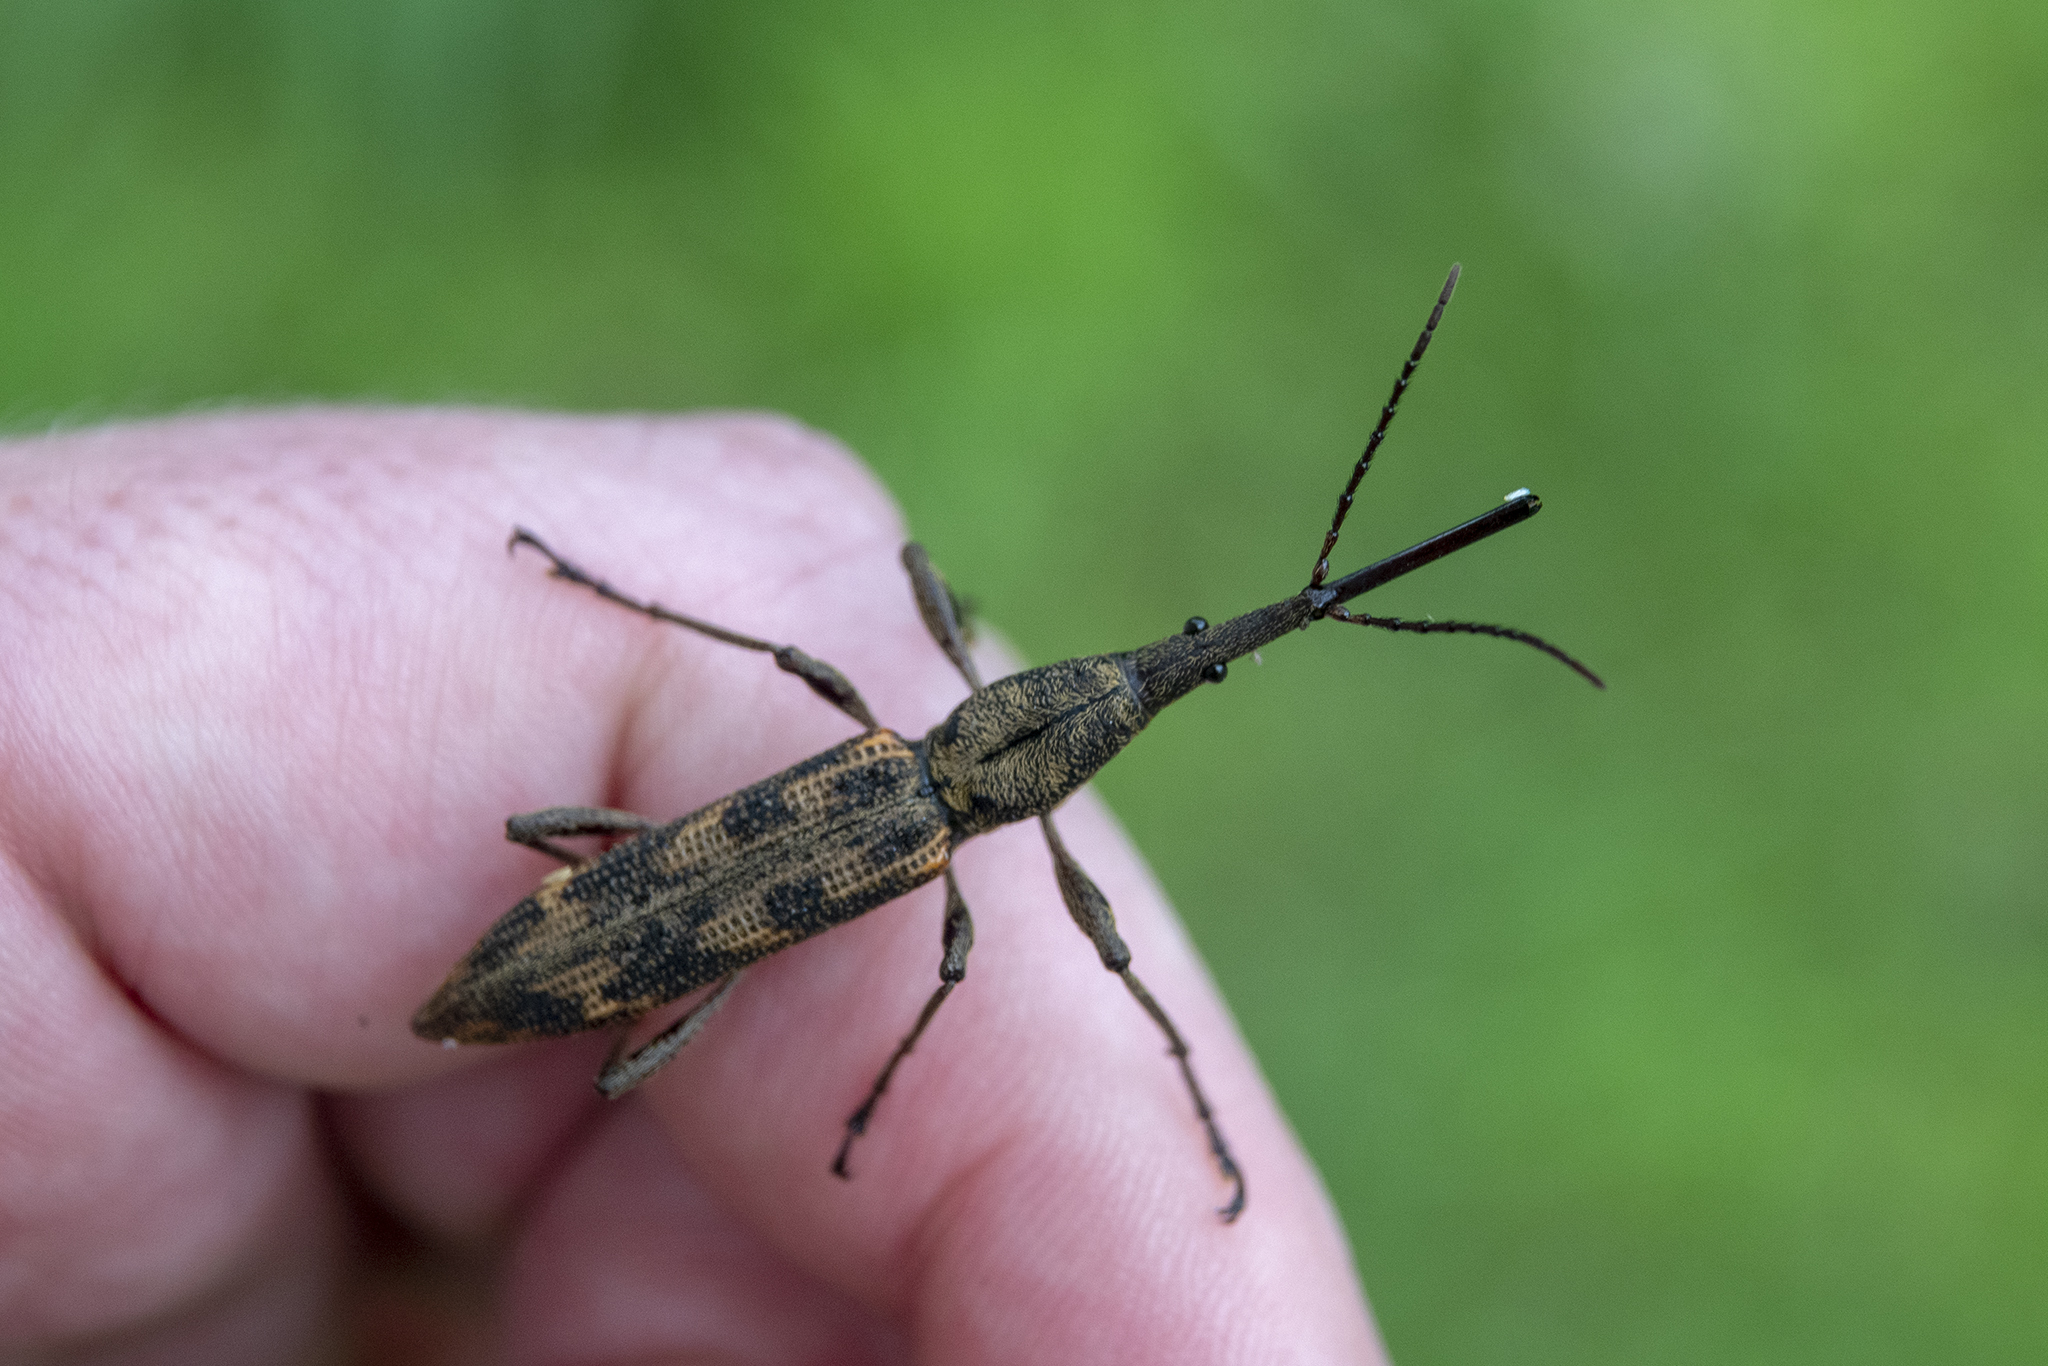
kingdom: Animalia
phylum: Arthropoda
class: Insecta
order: Coleoptera
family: Brentidae
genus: Lasiorhynchus
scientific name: Lasiorhynchus barbicornis
